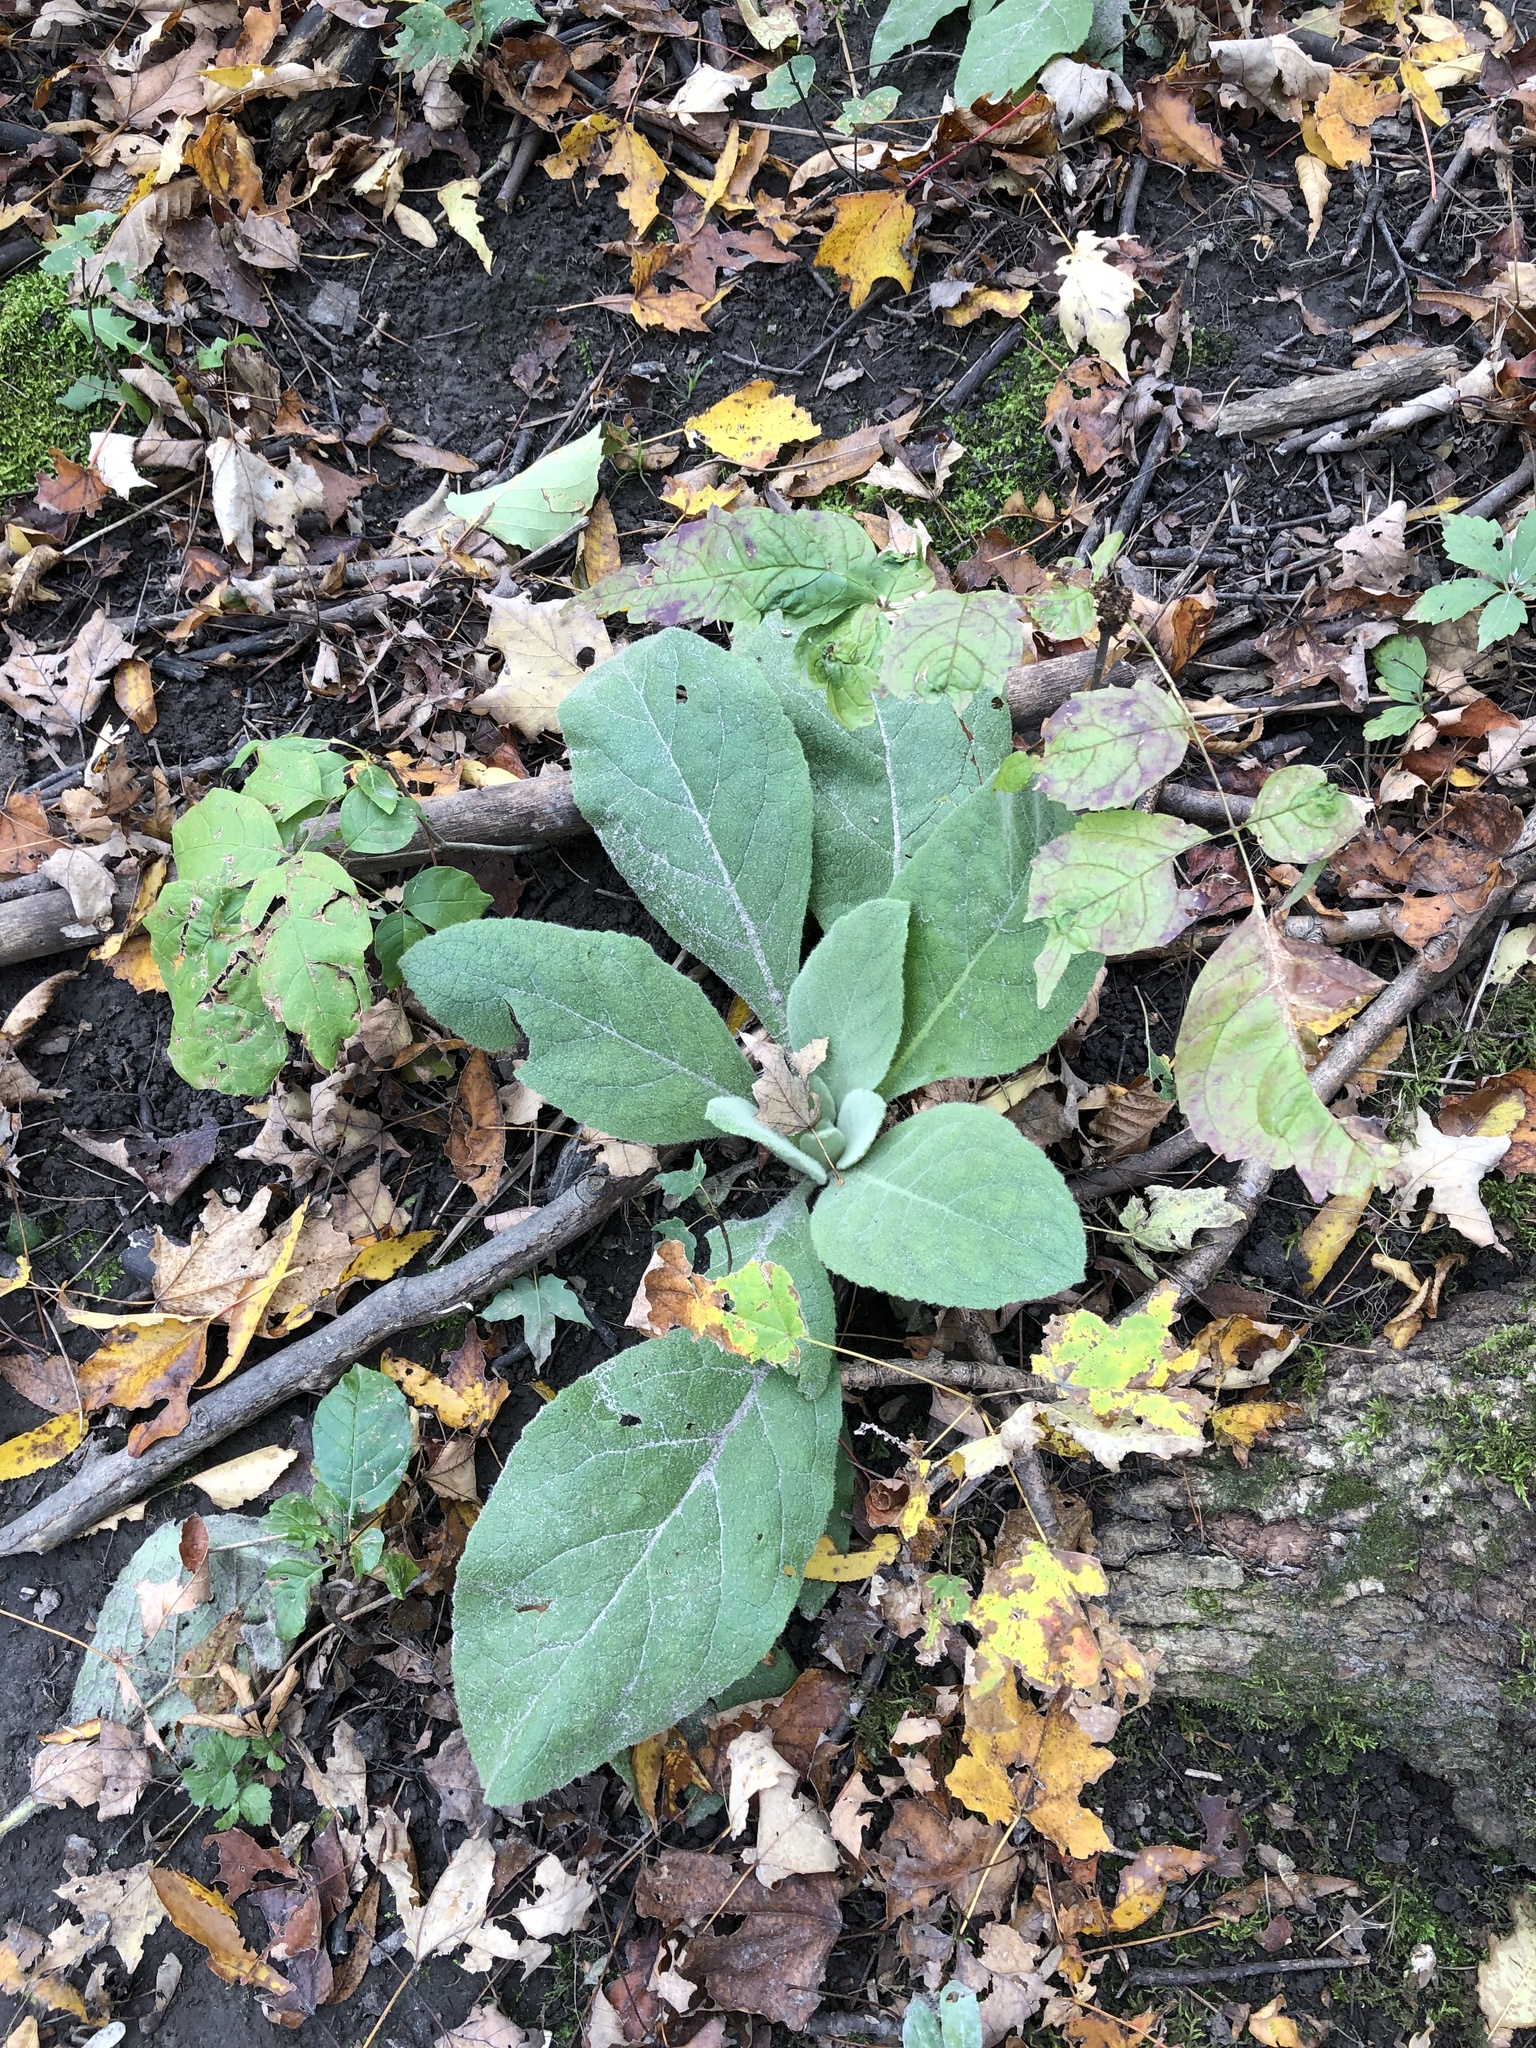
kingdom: Plantae
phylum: Tracheophyta
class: Magnoliopsida
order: Lamiales
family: Scrophulariaceae
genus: Verbascum
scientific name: Verbascum thapsus
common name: Common mullein
